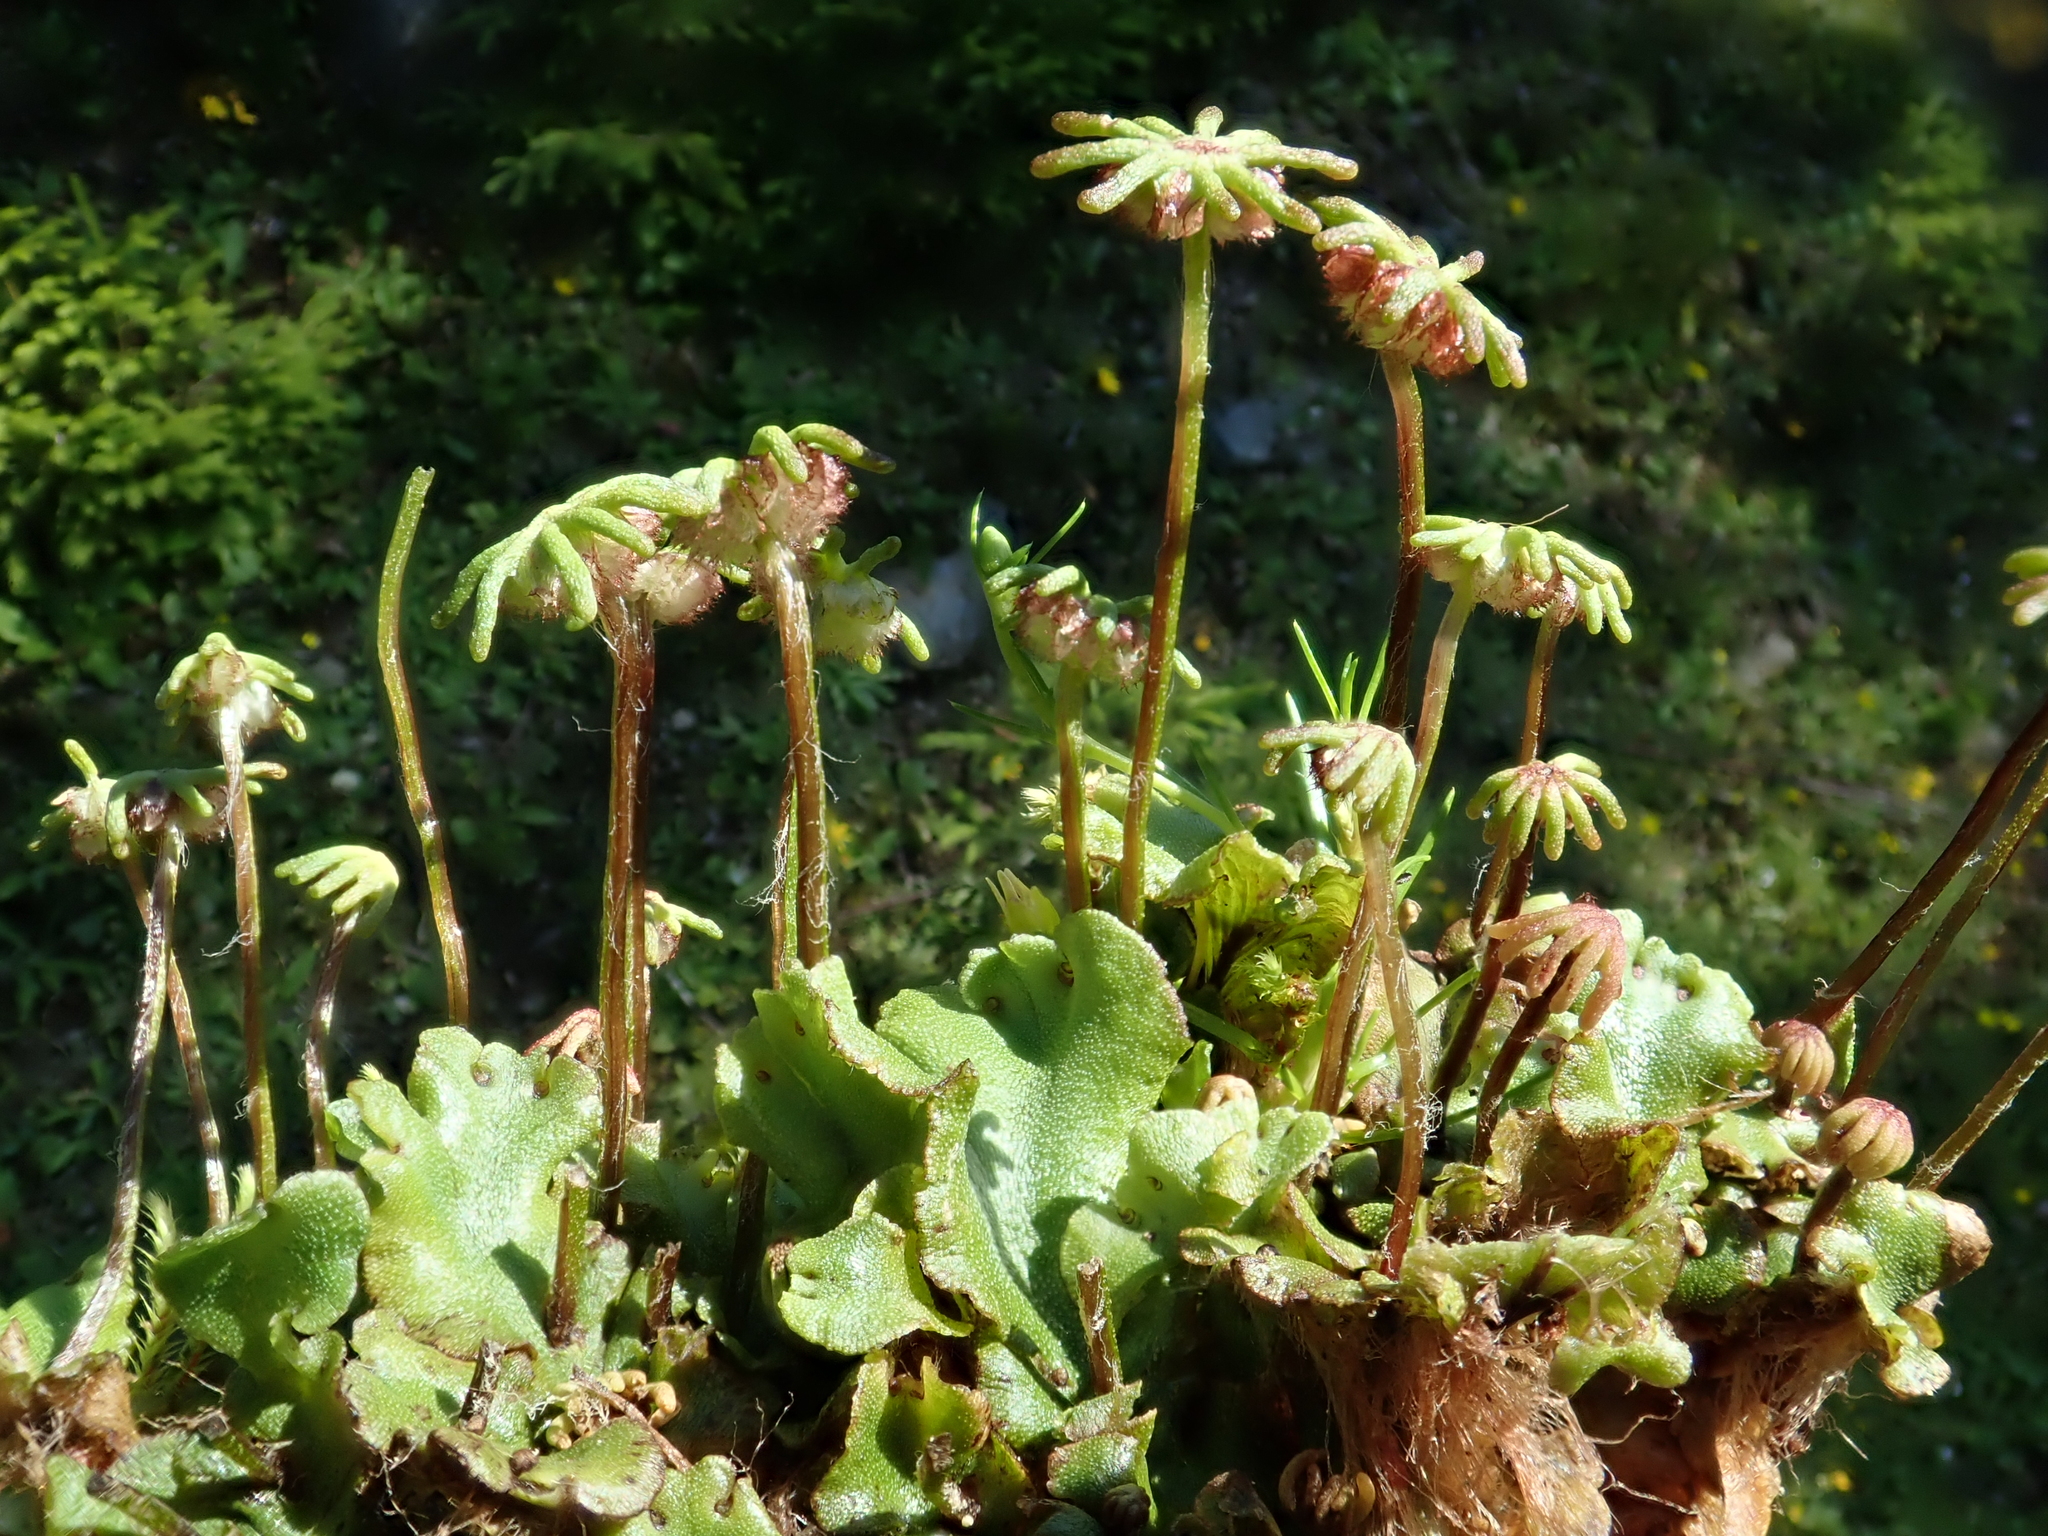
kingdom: Plantae
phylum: Marchantiophyta
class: Marchantiopsida
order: Marchantiales
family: Marchantiaceae
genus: Marchantia
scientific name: Marchantia polymorpha
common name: Common liverwort
